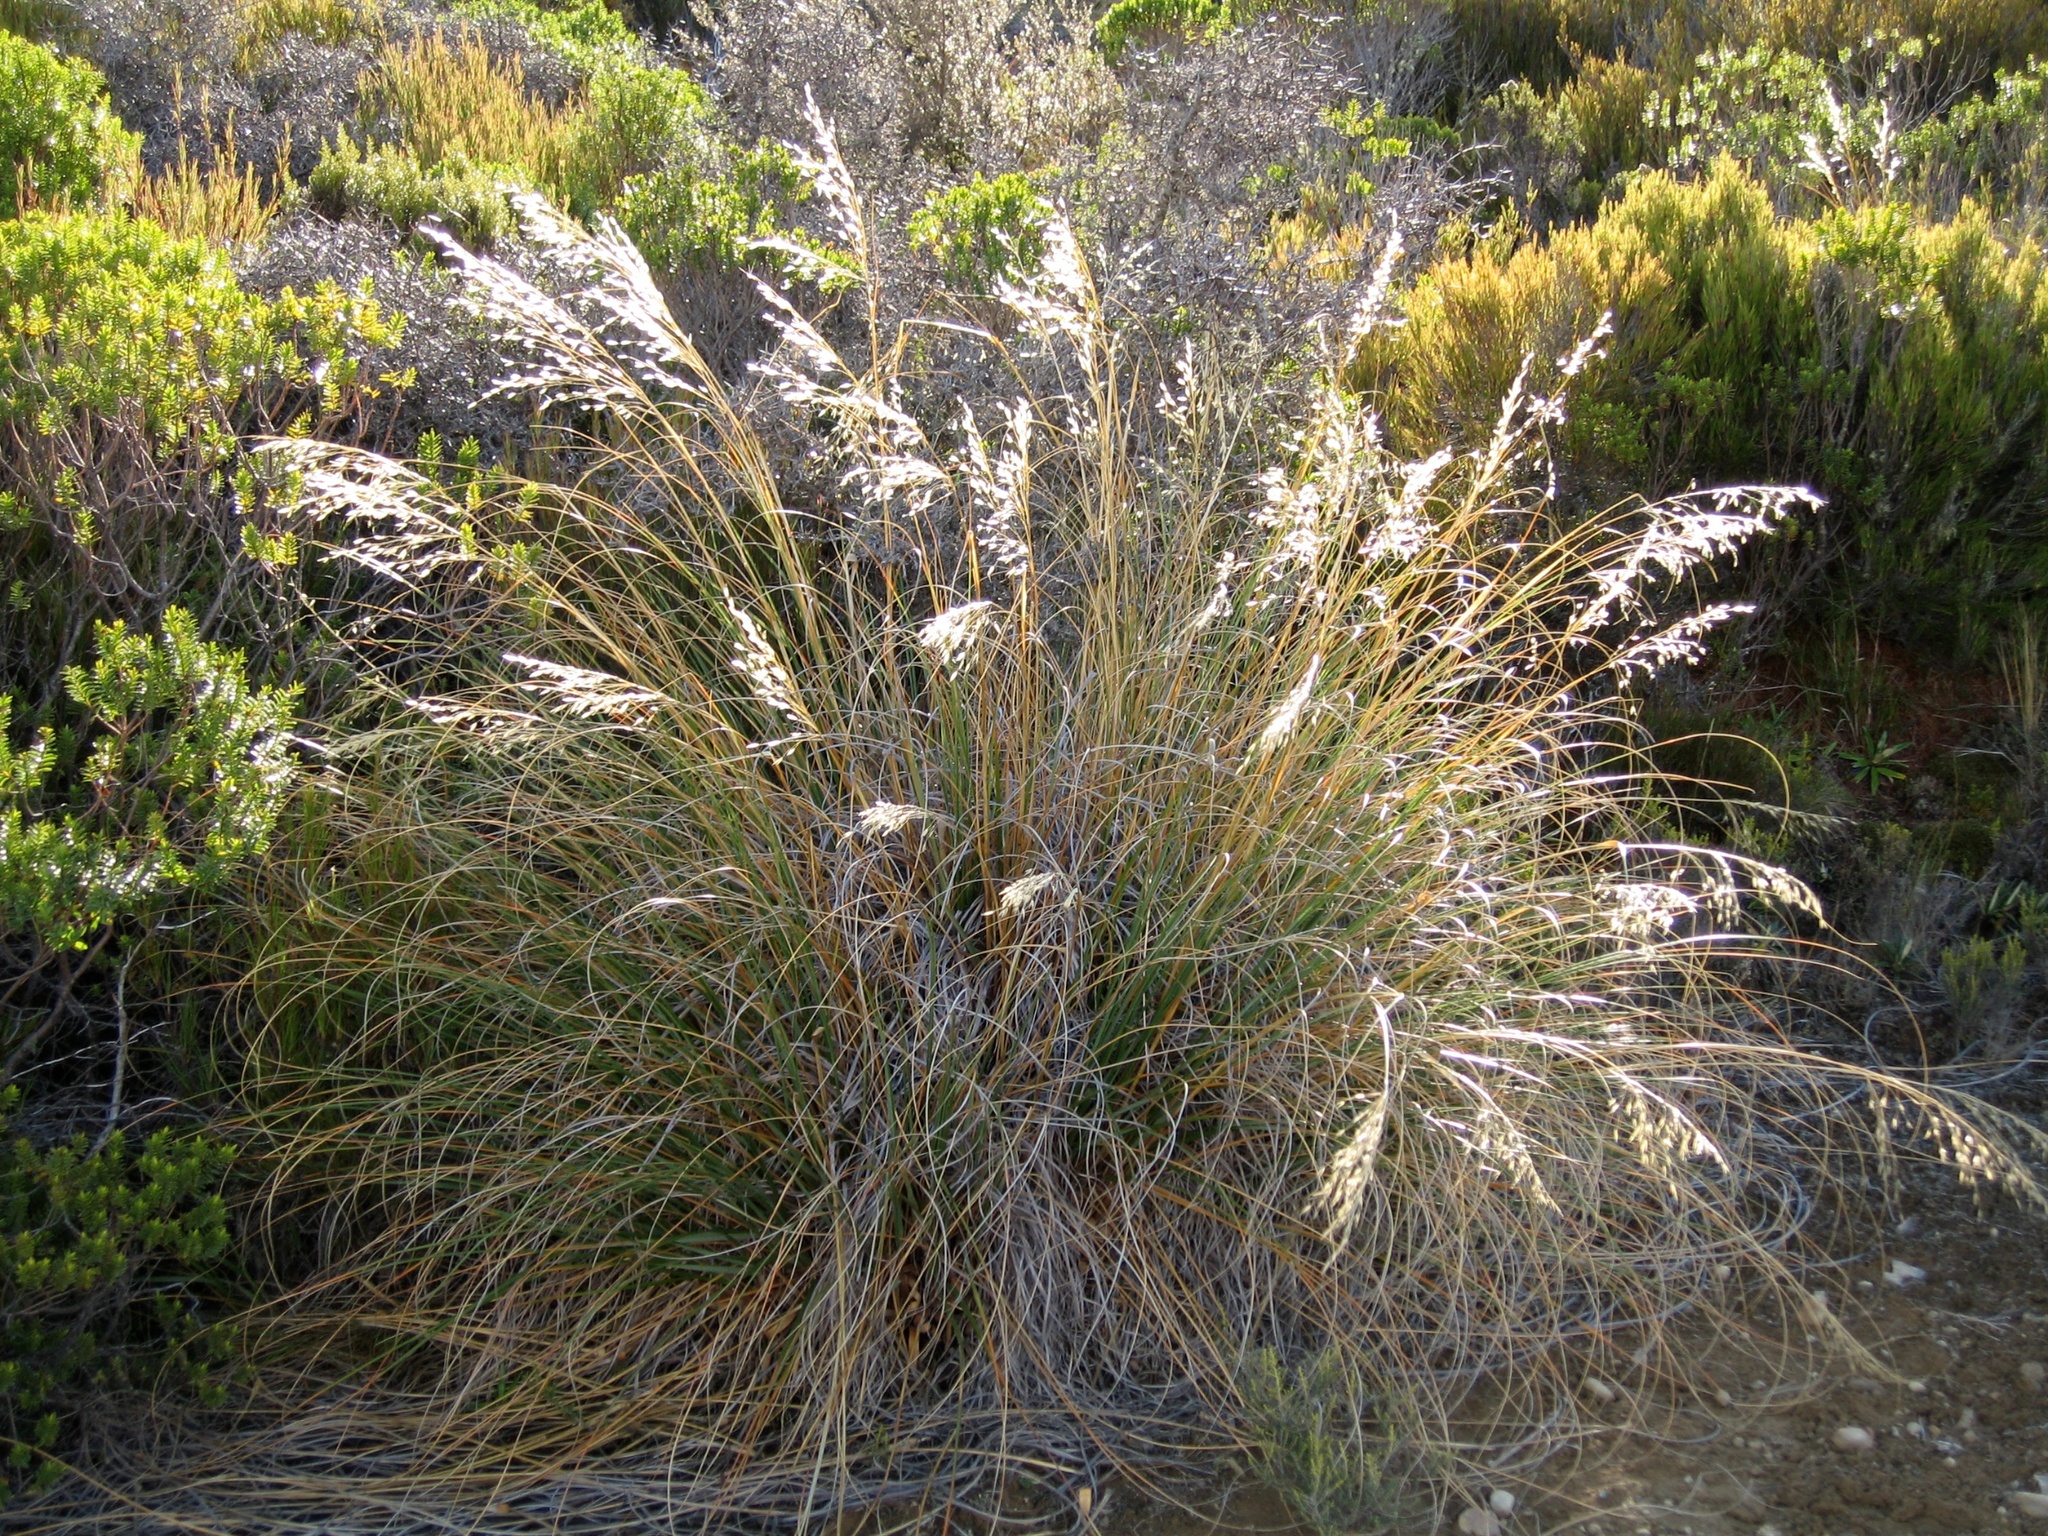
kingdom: Plantae
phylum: Tracheophyta
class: Liliopsida
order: Poales
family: Poaceae
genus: Chionochloa
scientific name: Chionochloa flavescens
